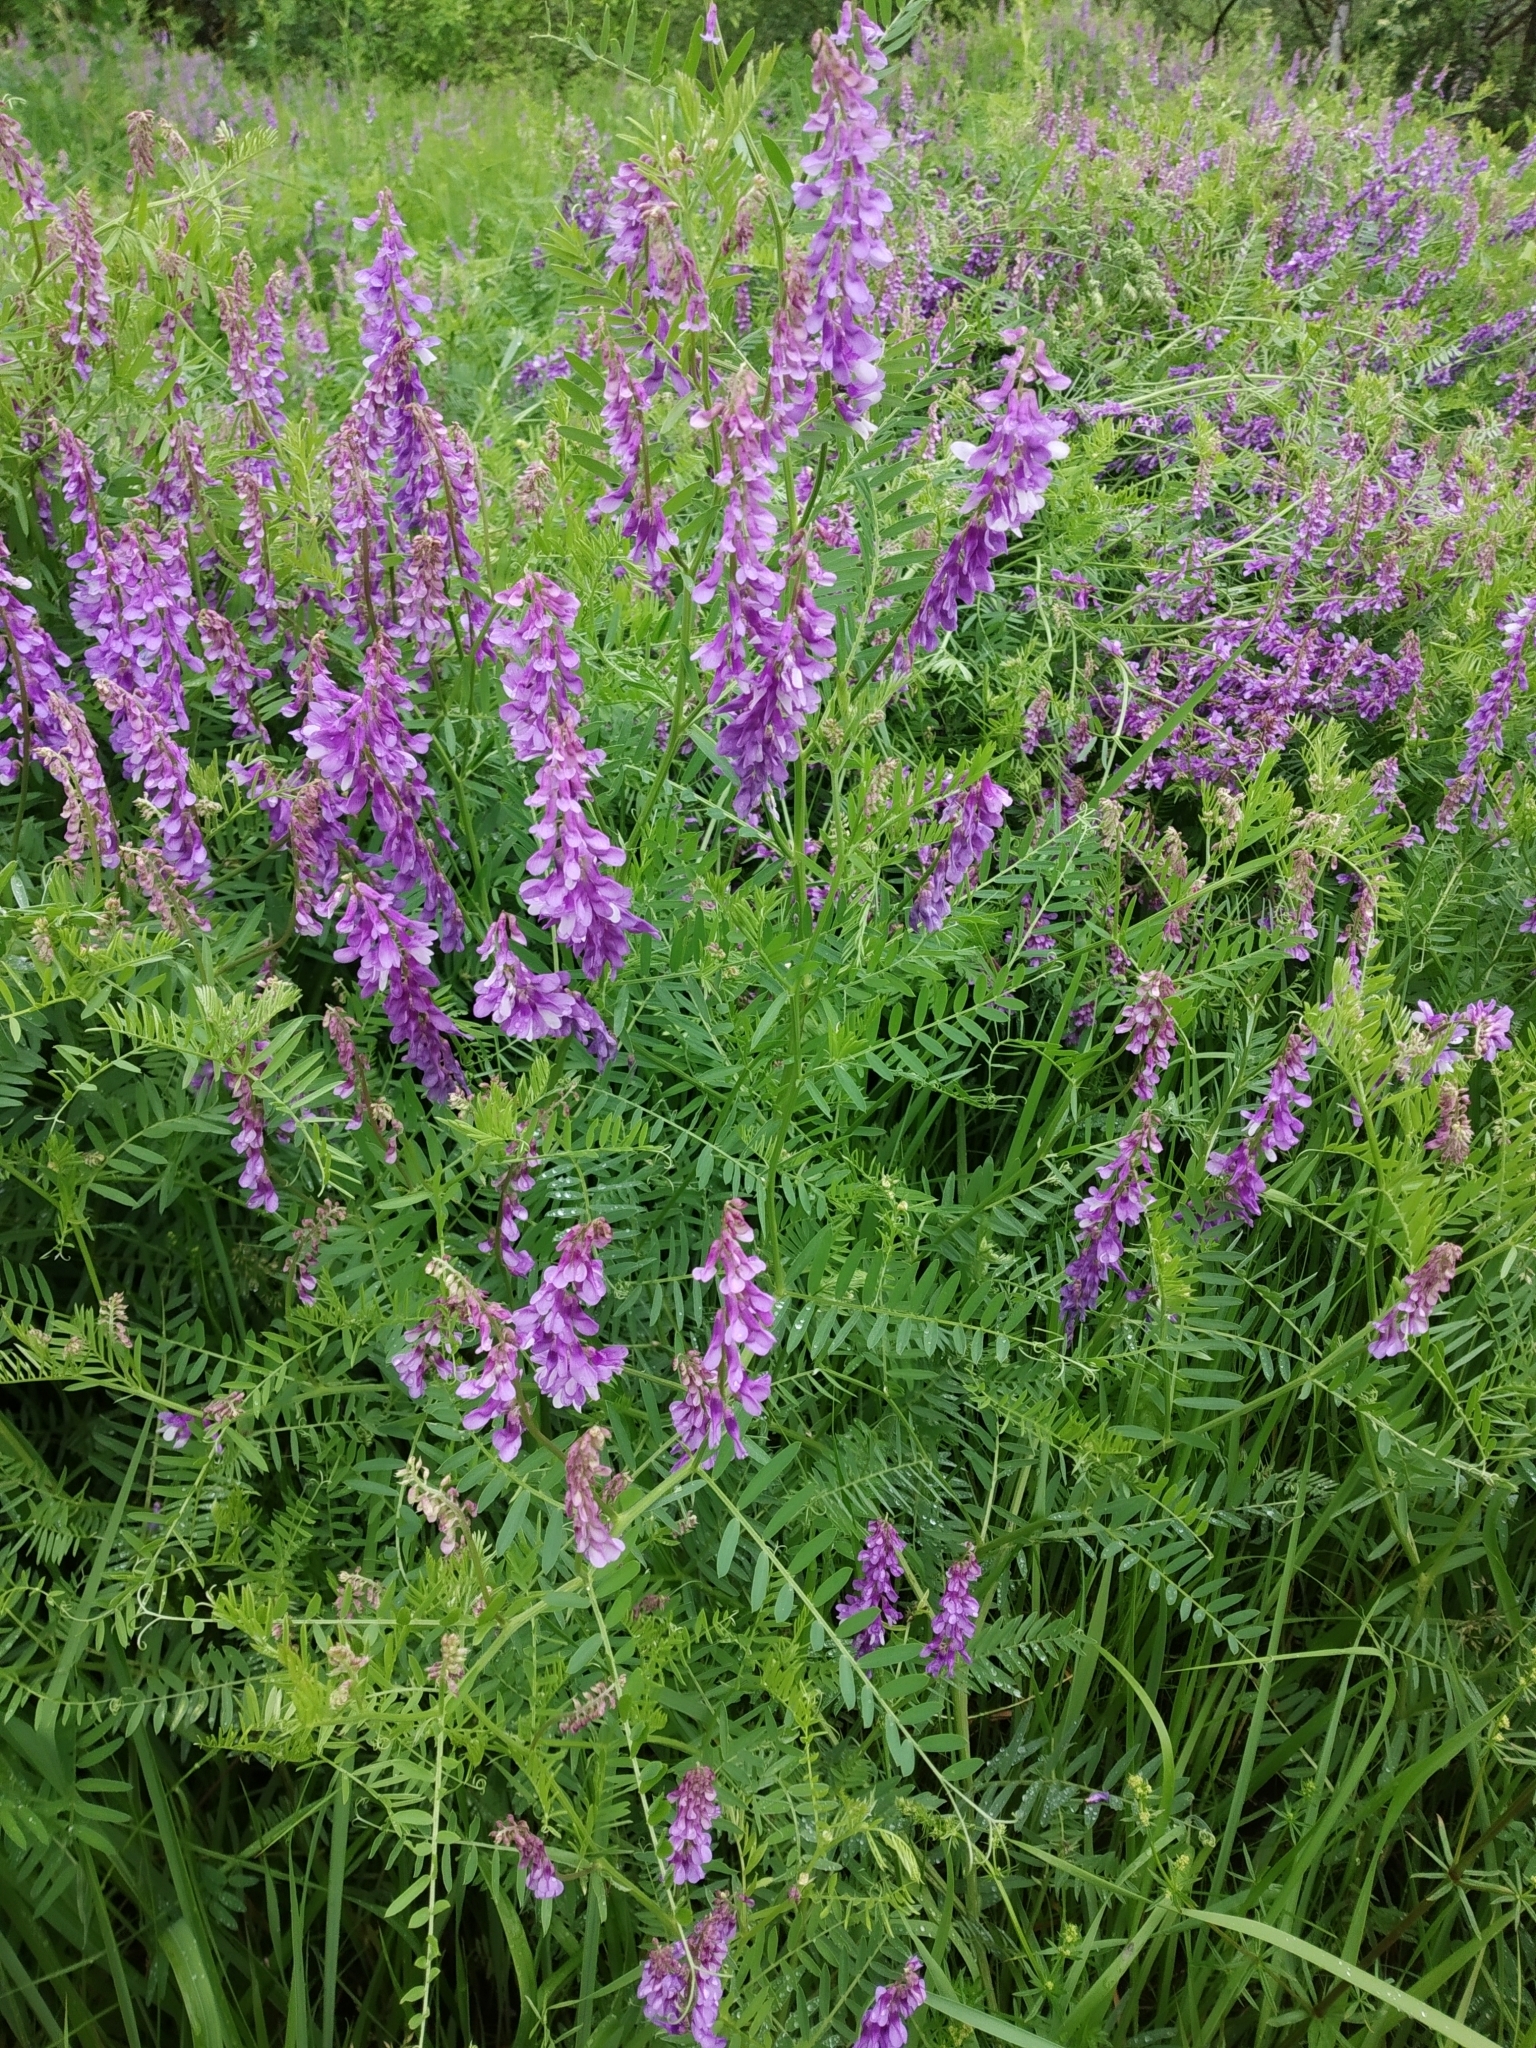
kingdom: Plantae
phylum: Tracheophyta
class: Magnoliopsida
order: Fabales
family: Fabaceae
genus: Vicia
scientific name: Vicia tenuifolia
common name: Fine-leaved vetch
